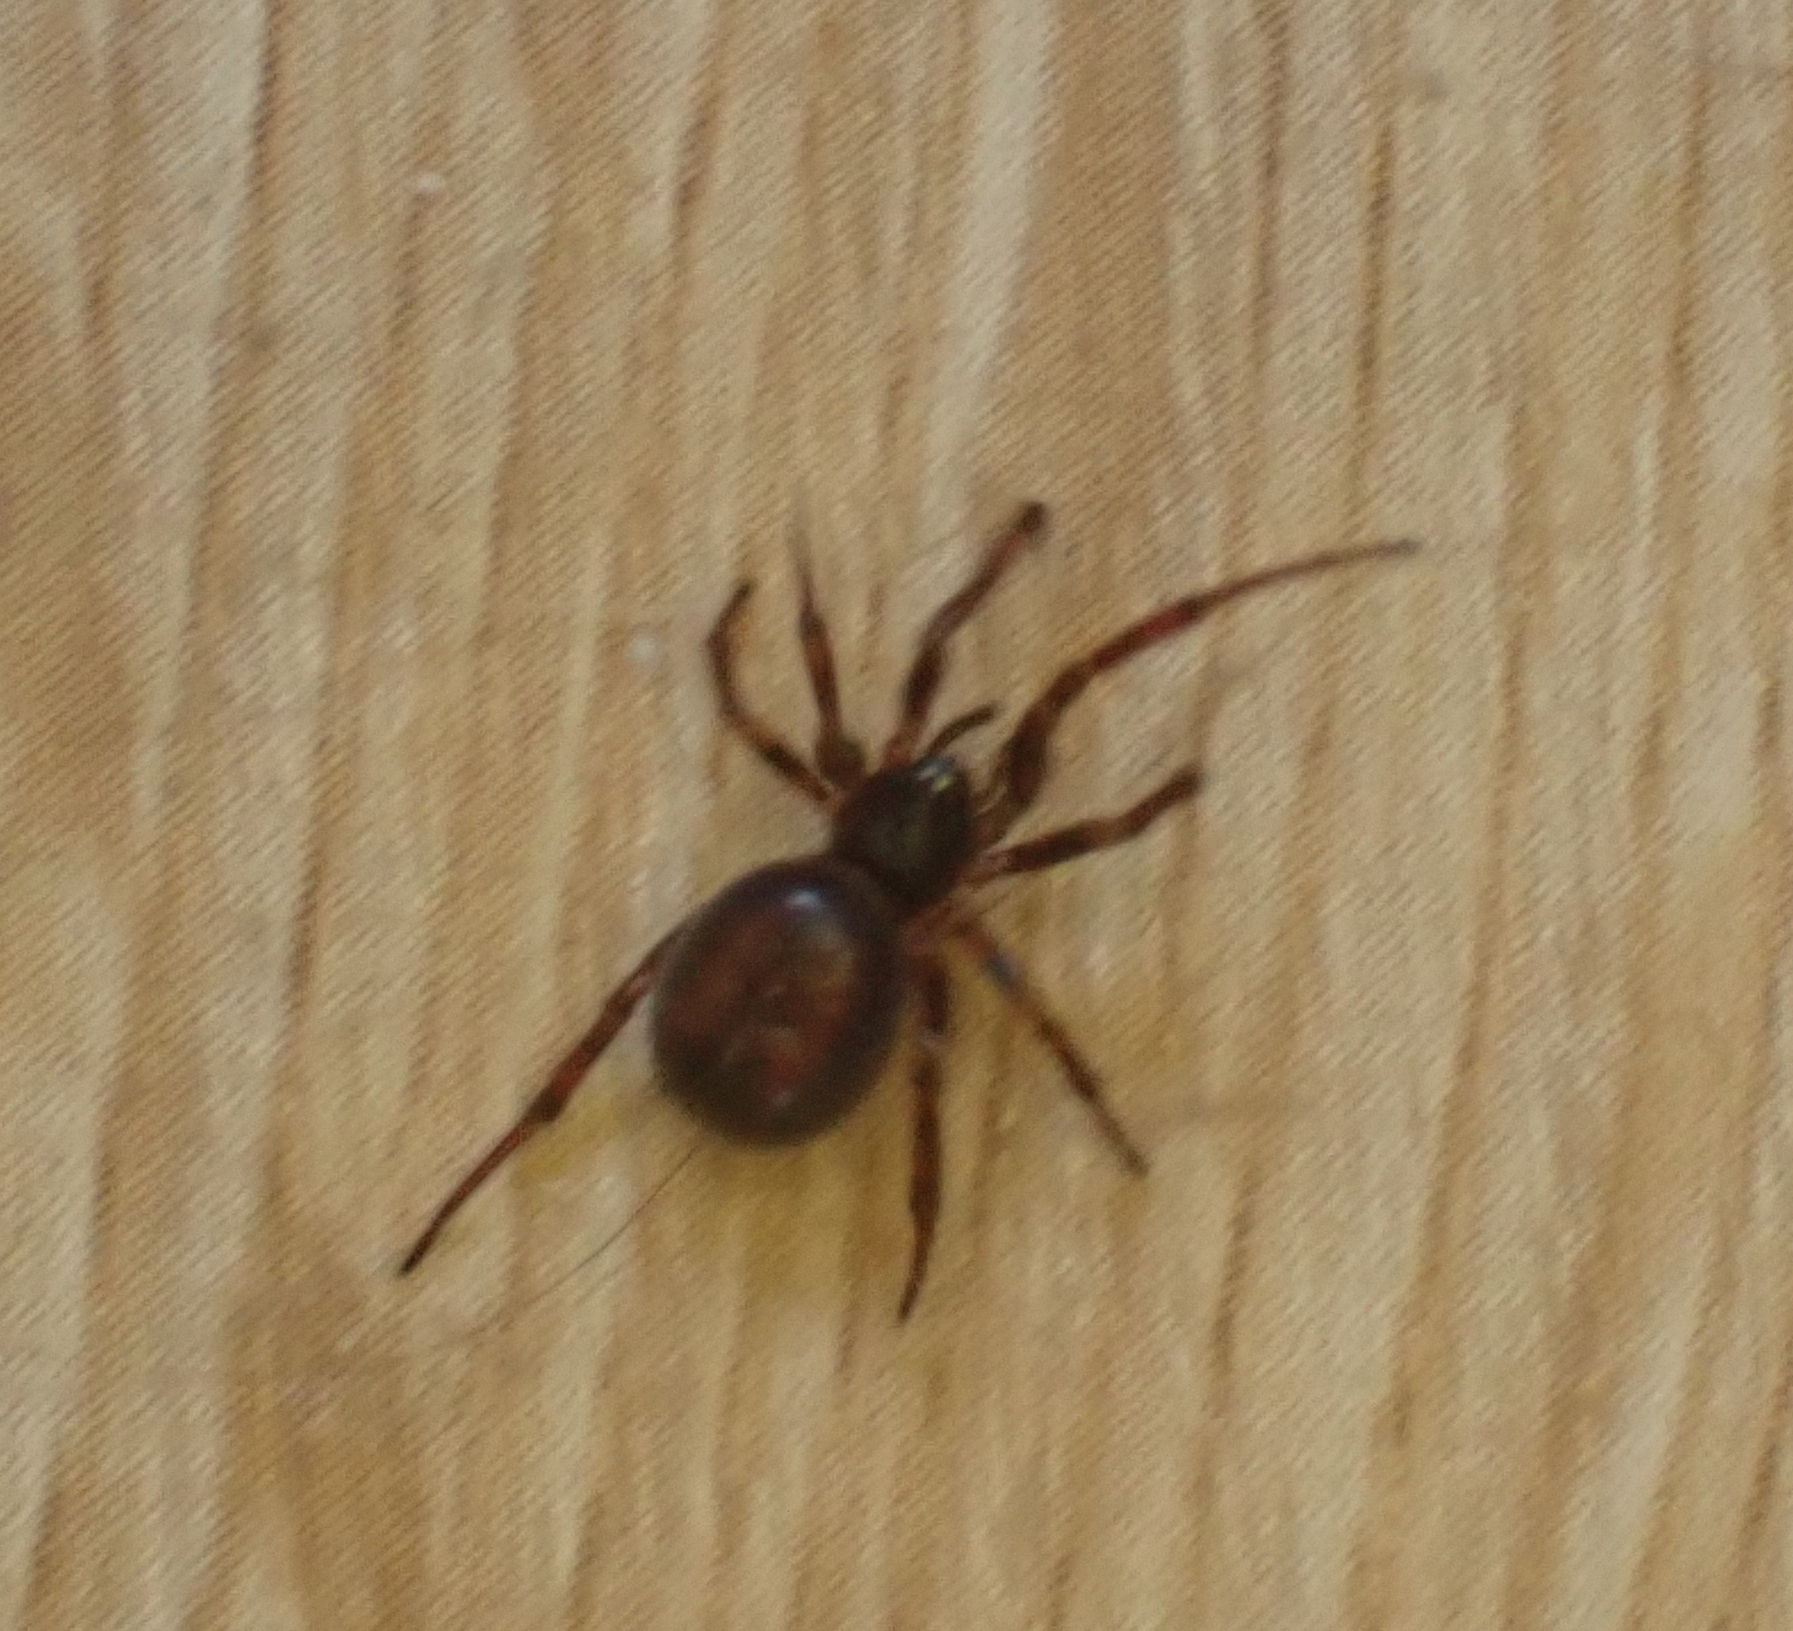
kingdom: Animalia
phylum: Arthropoda
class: Arachnida
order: Araneae
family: Theridiidae
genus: Steatoda
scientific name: Steatoda bipunctata
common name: False widow
